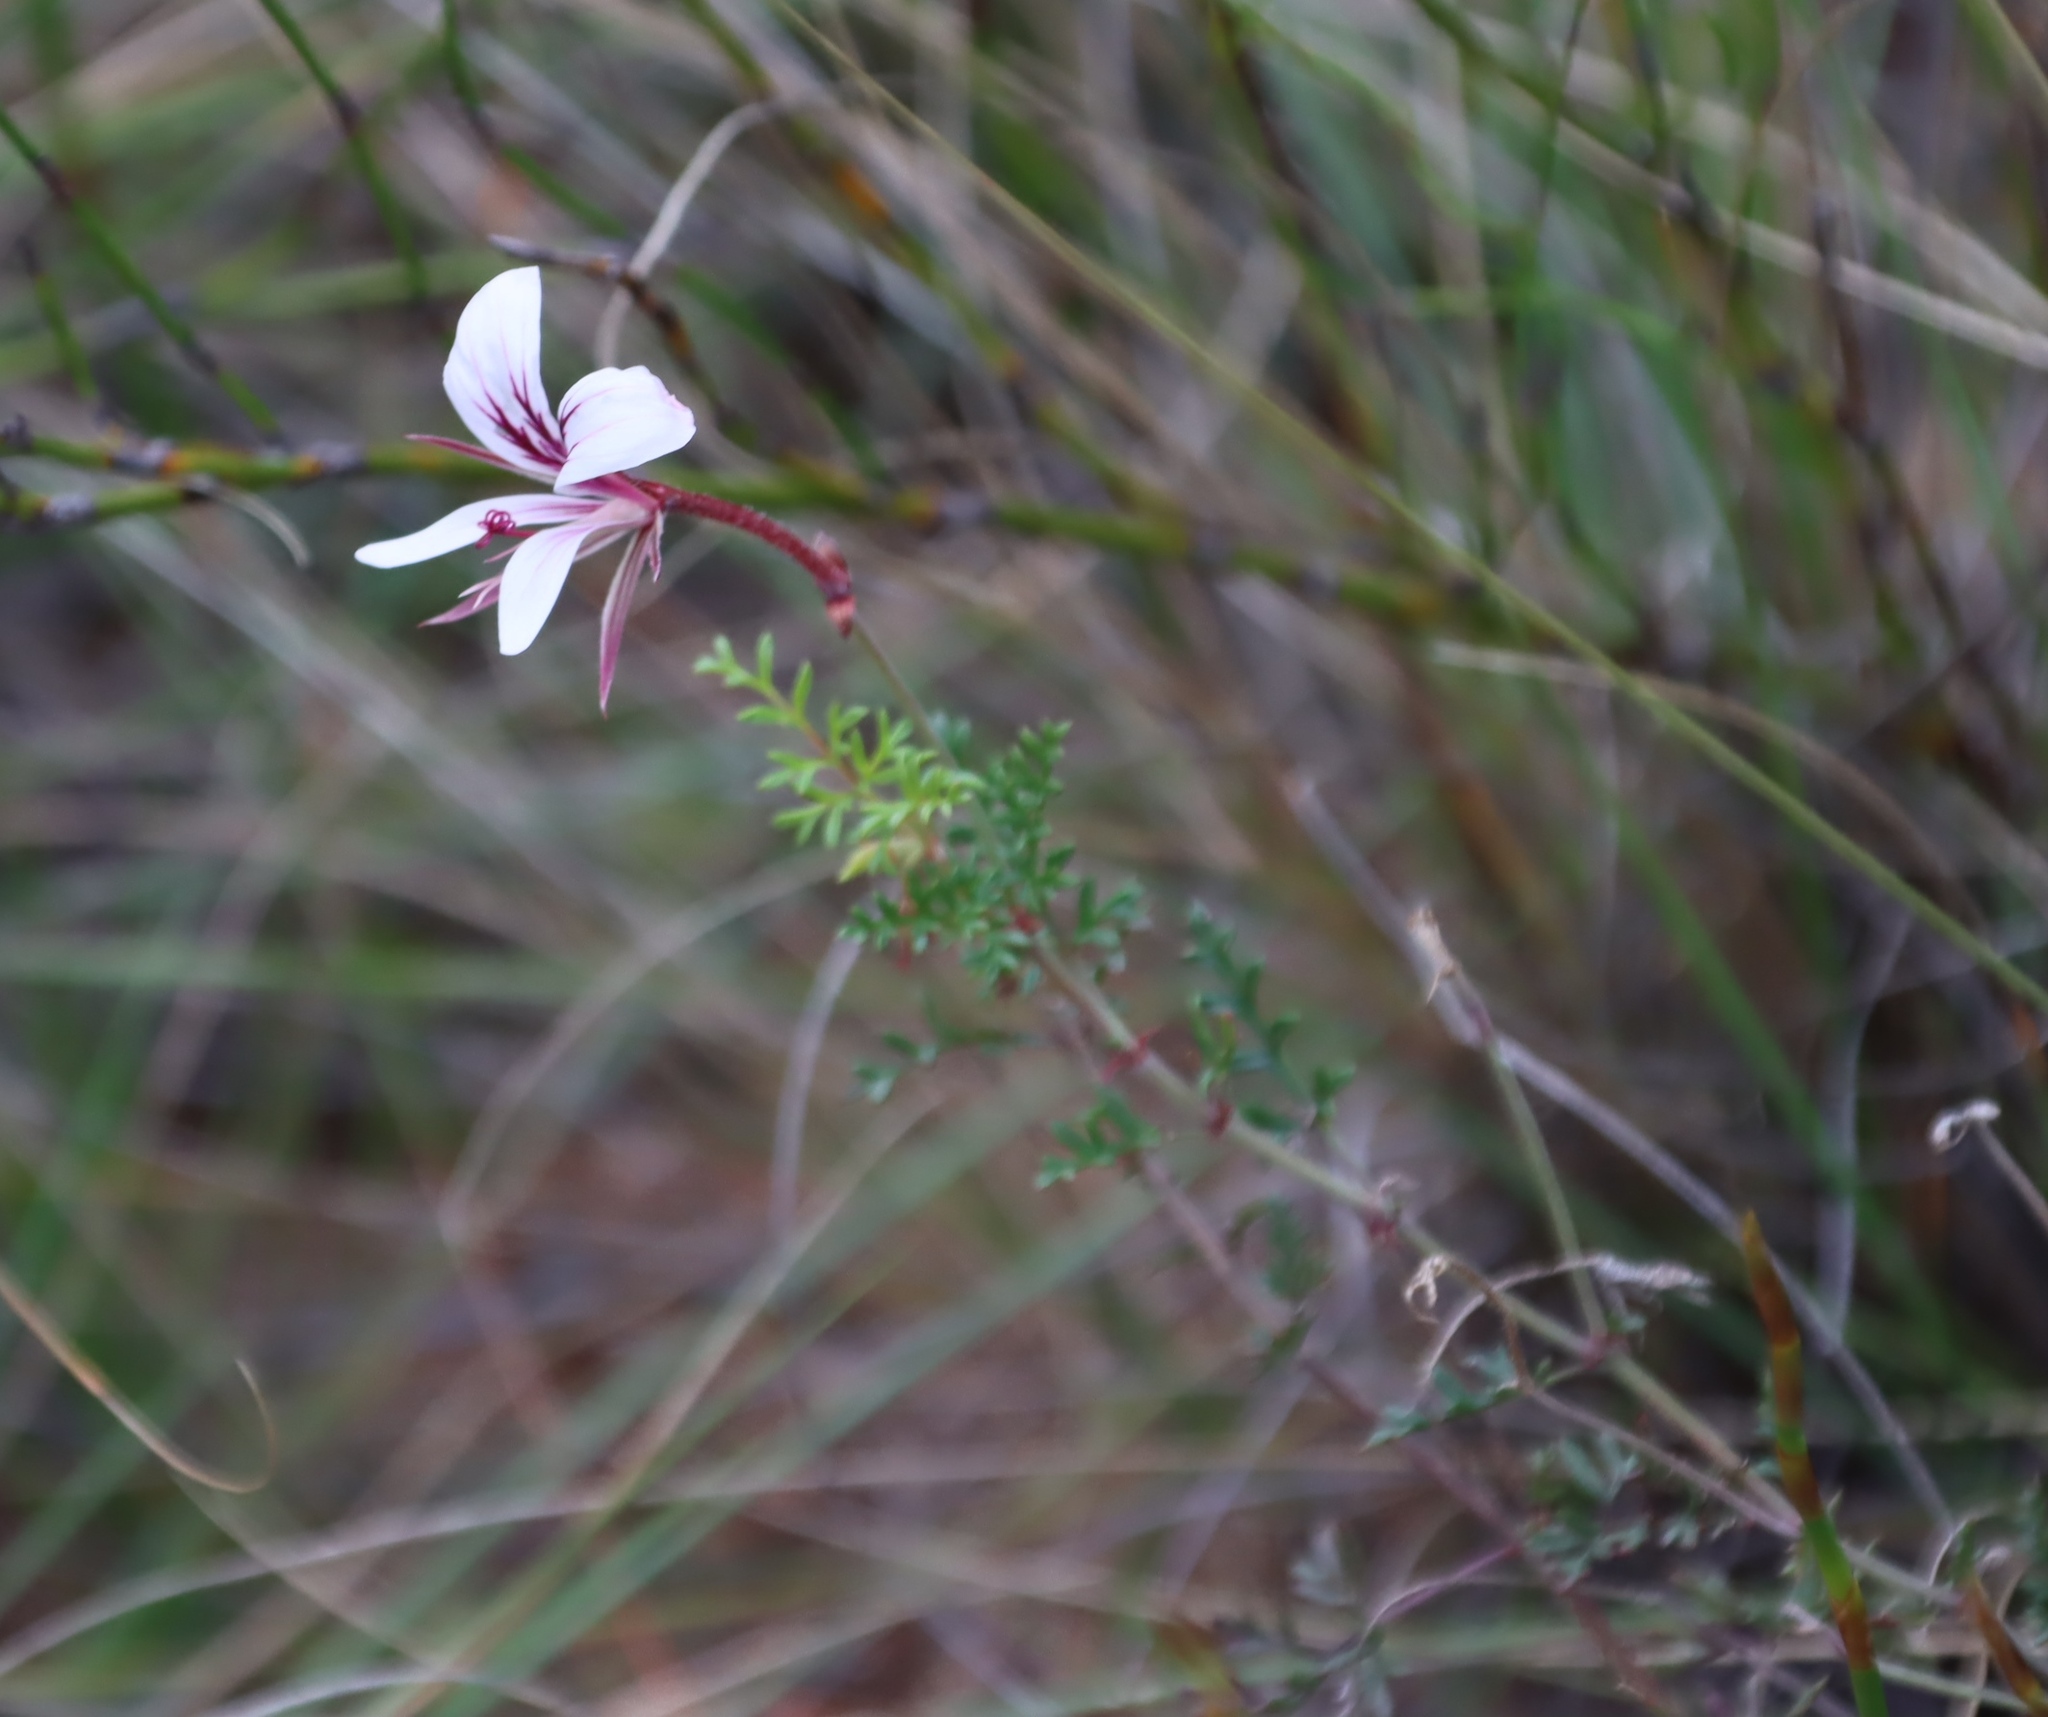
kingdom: Plantae
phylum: Tracheophyta
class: Magnoliopsida
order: Geraniales
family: Geraniaceae
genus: Pelargonium
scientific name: Pelargonium caucalifolium
